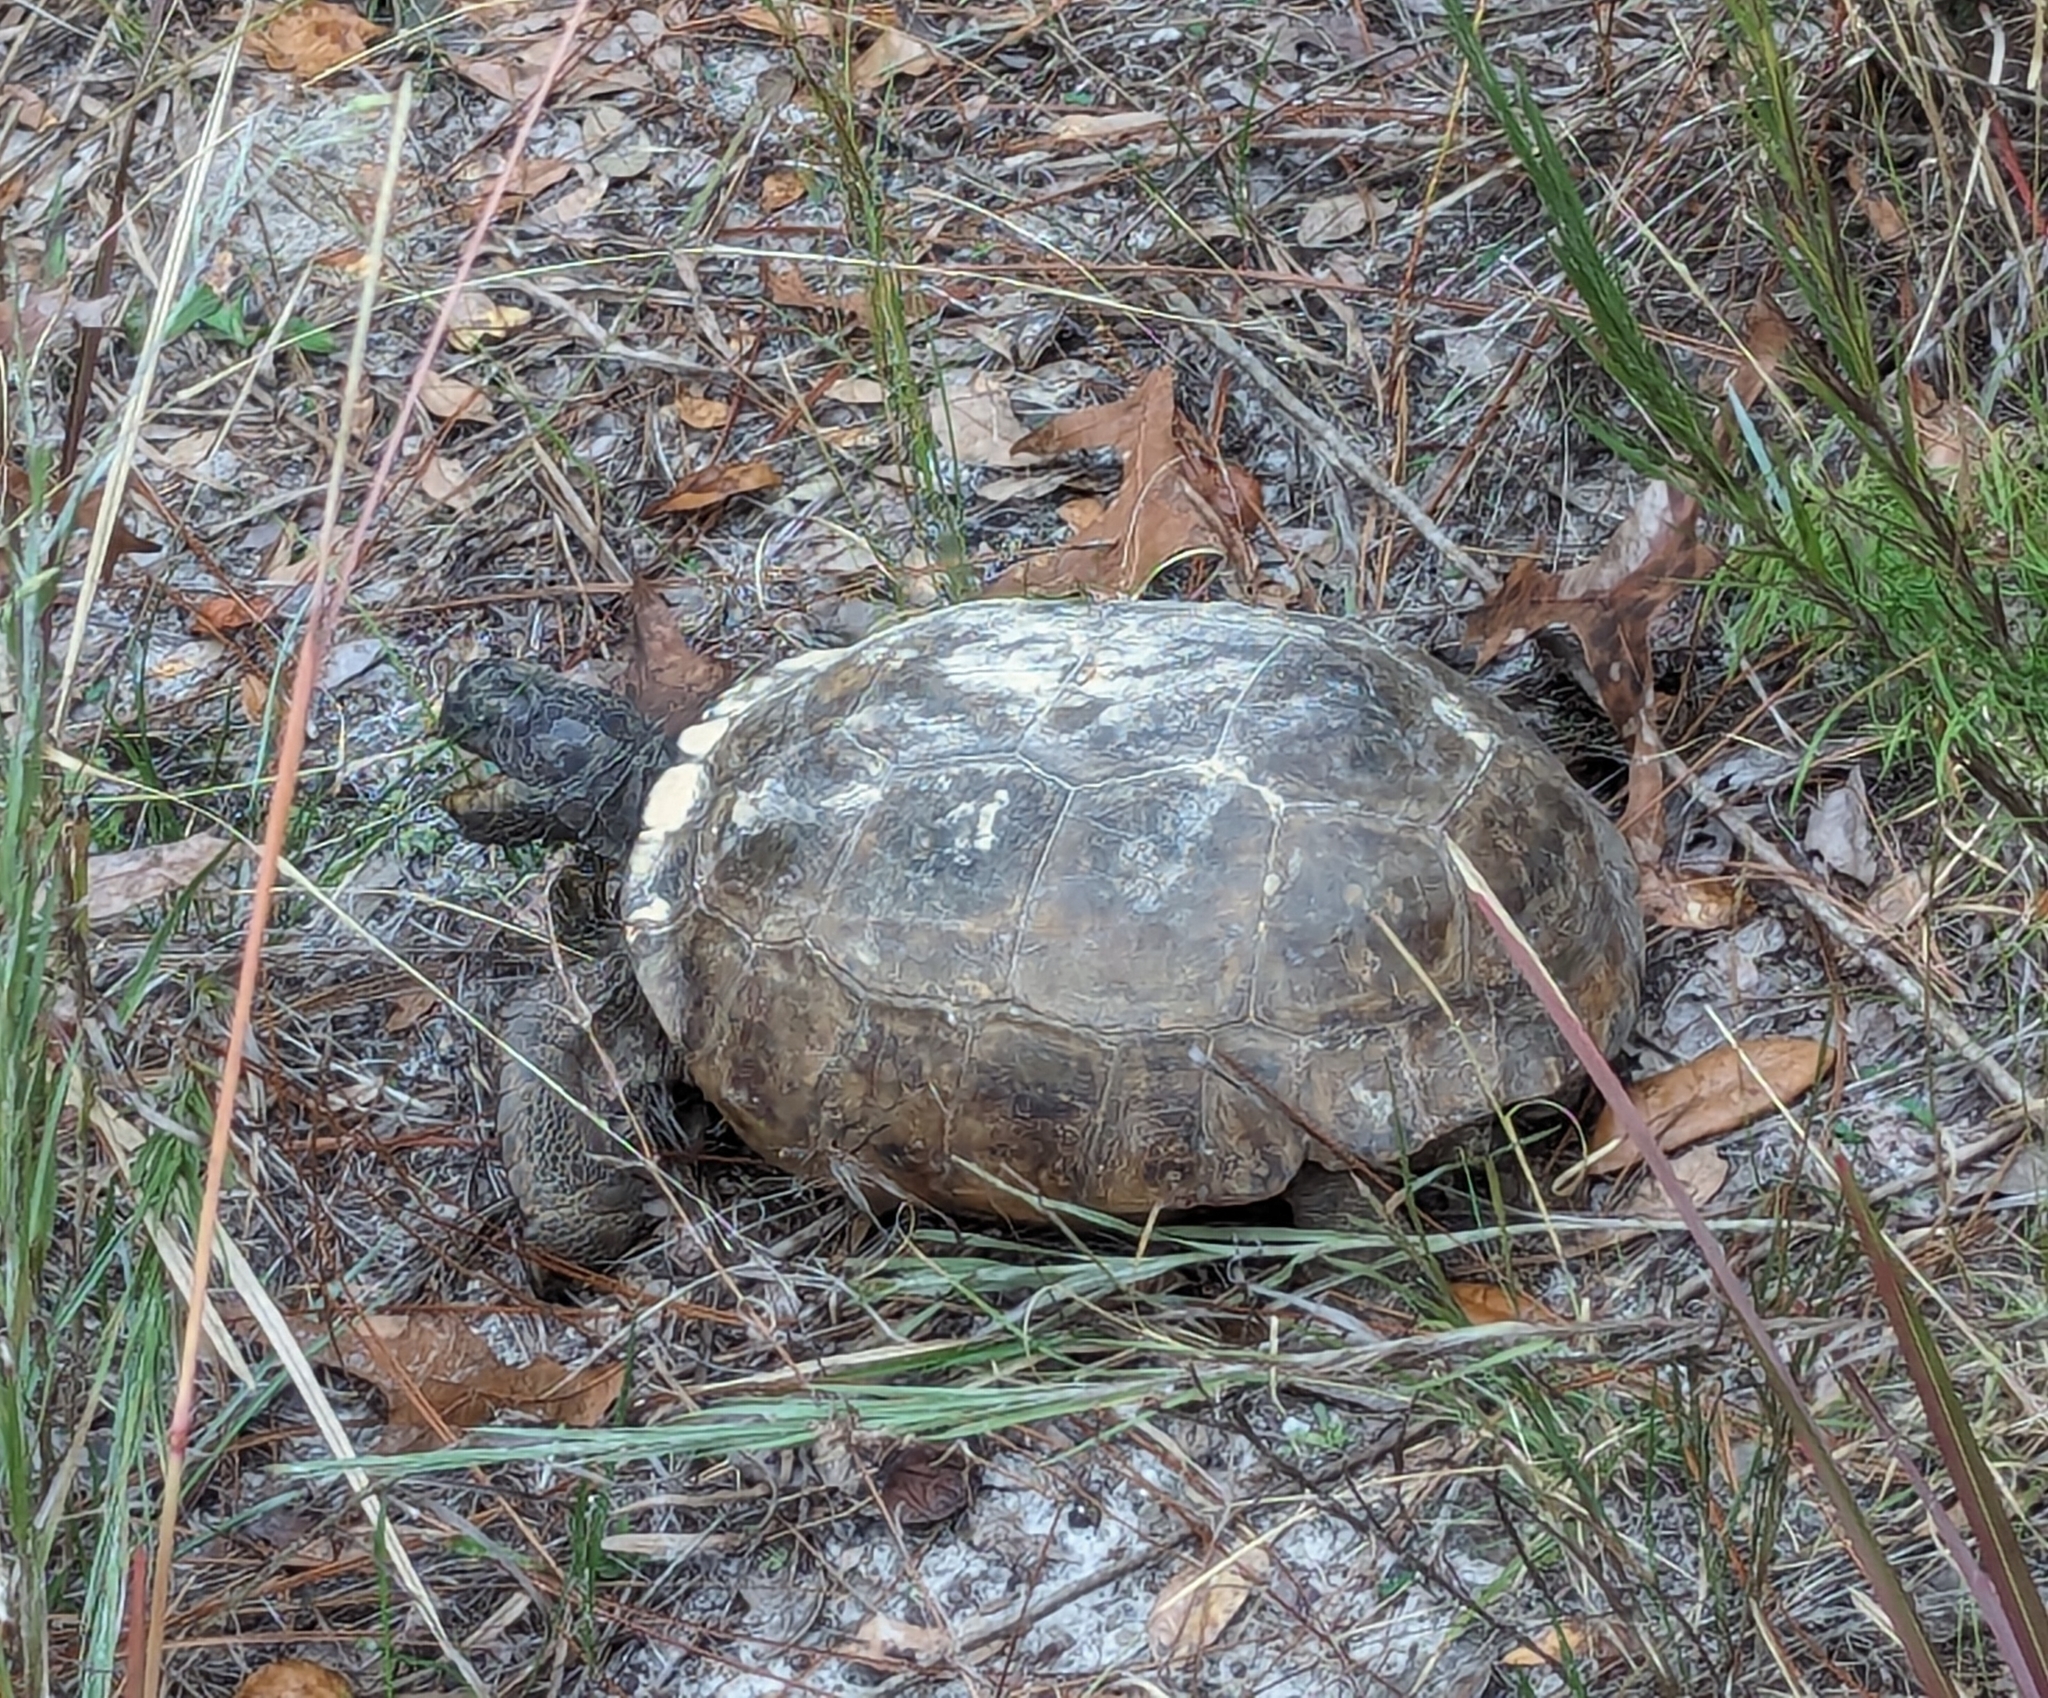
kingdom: Animalia
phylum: Chordata
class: Testudines
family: Testudinidae
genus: Gopherus
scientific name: Gopherus polyphemus
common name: Florida gopher tortoise
